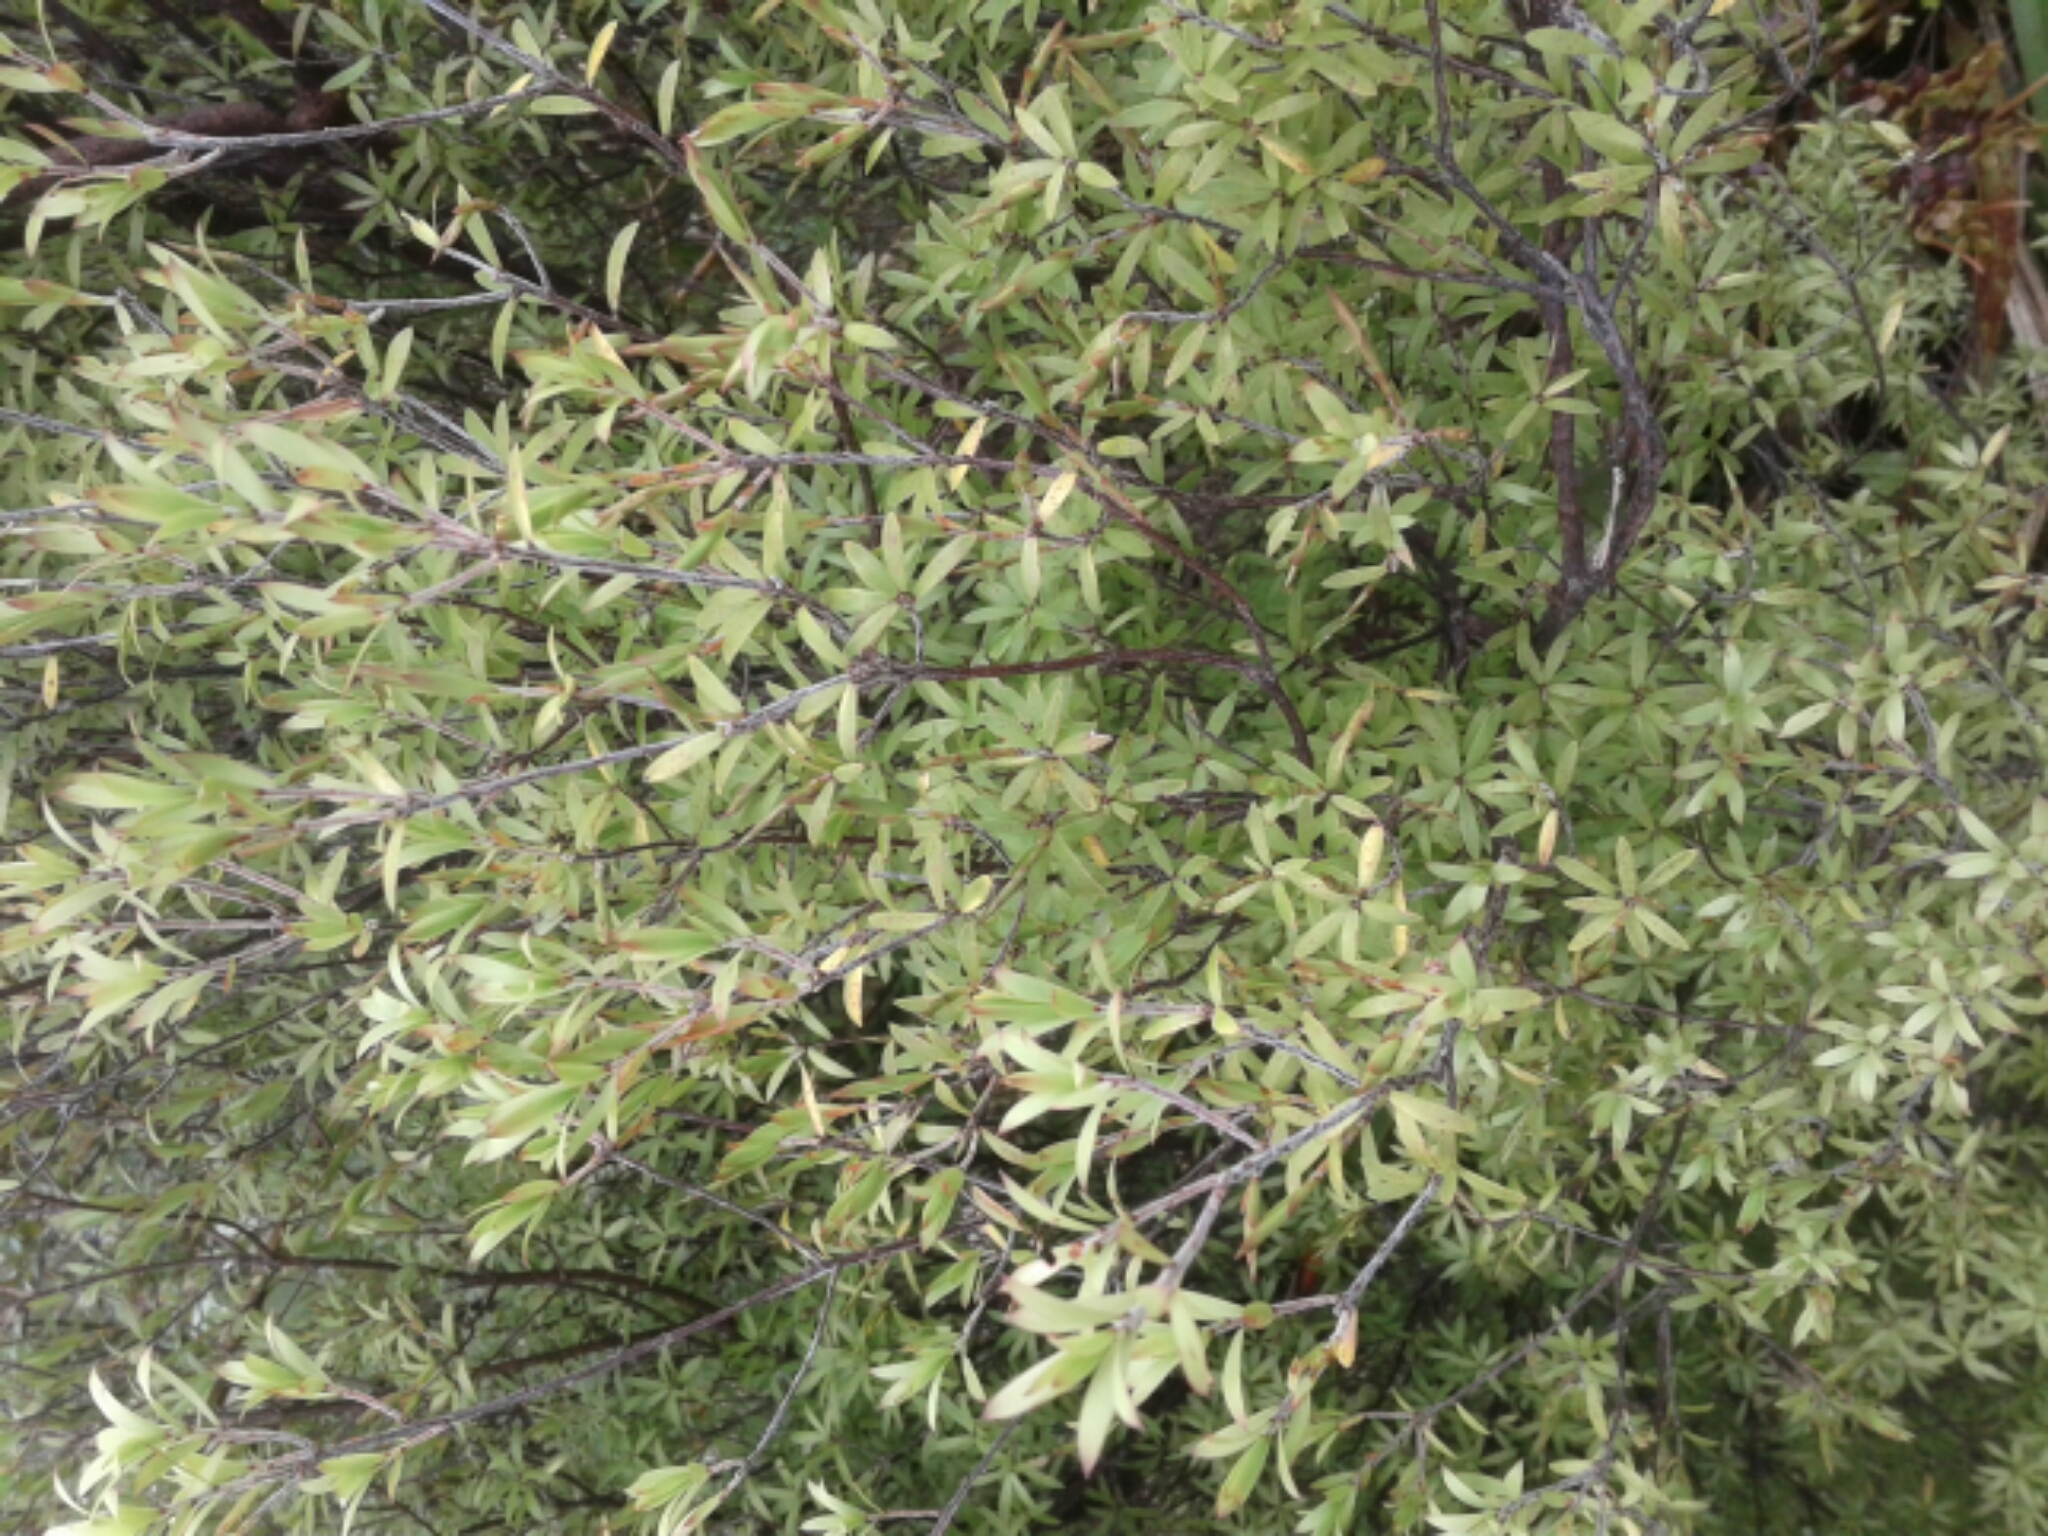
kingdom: Plantae
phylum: Tracheophyta
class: Magnoliopsida
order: Ericales
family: Ericaceae
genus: Leucopogon
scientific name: Leucopogon fasciculatus
